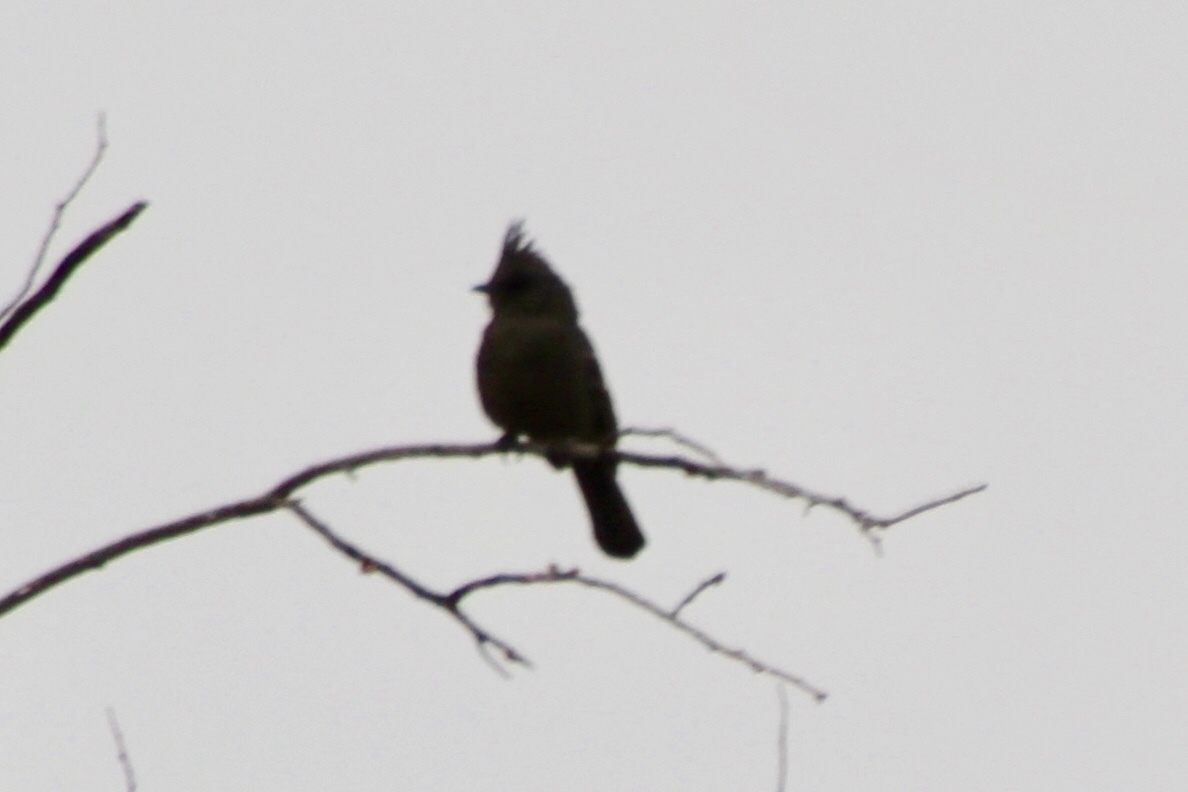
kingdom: Animalia
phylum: Chordata
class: Aves
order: Passeriformes
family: Ptilogonatidae
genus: Phainopepla
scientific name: Phainopepla nitens
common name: Phainopepla
